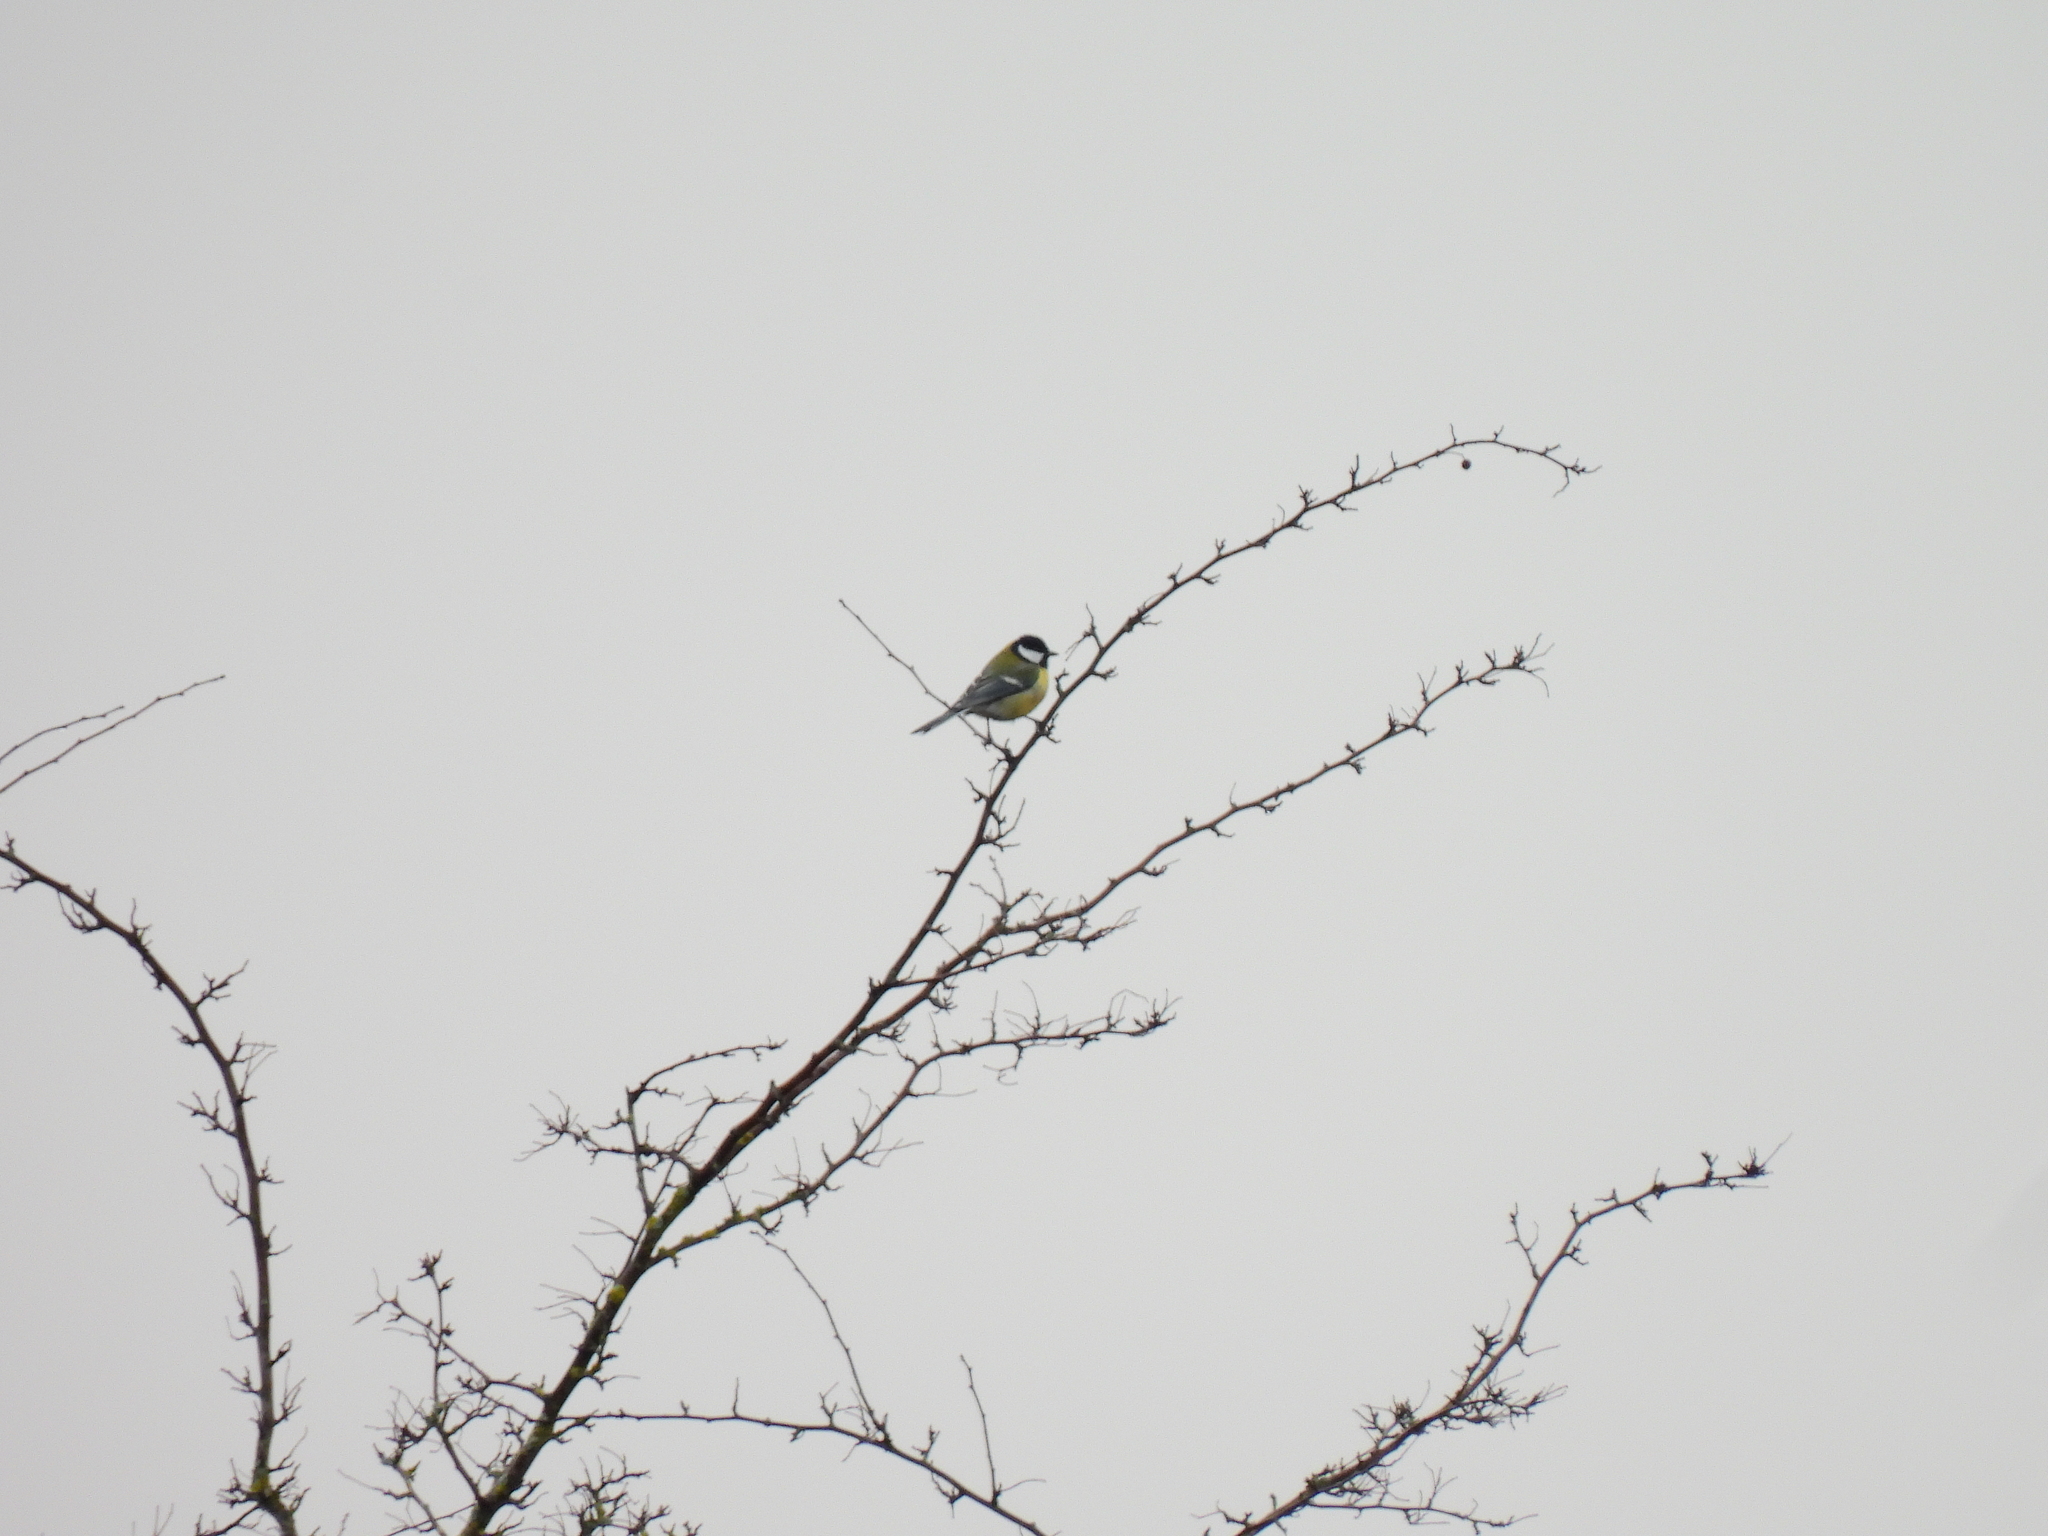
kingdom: Animalia
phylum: Chordata
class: Aves
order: Passeriformes
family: Paridae
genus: Parus
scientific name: Parus major
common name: Great tit
